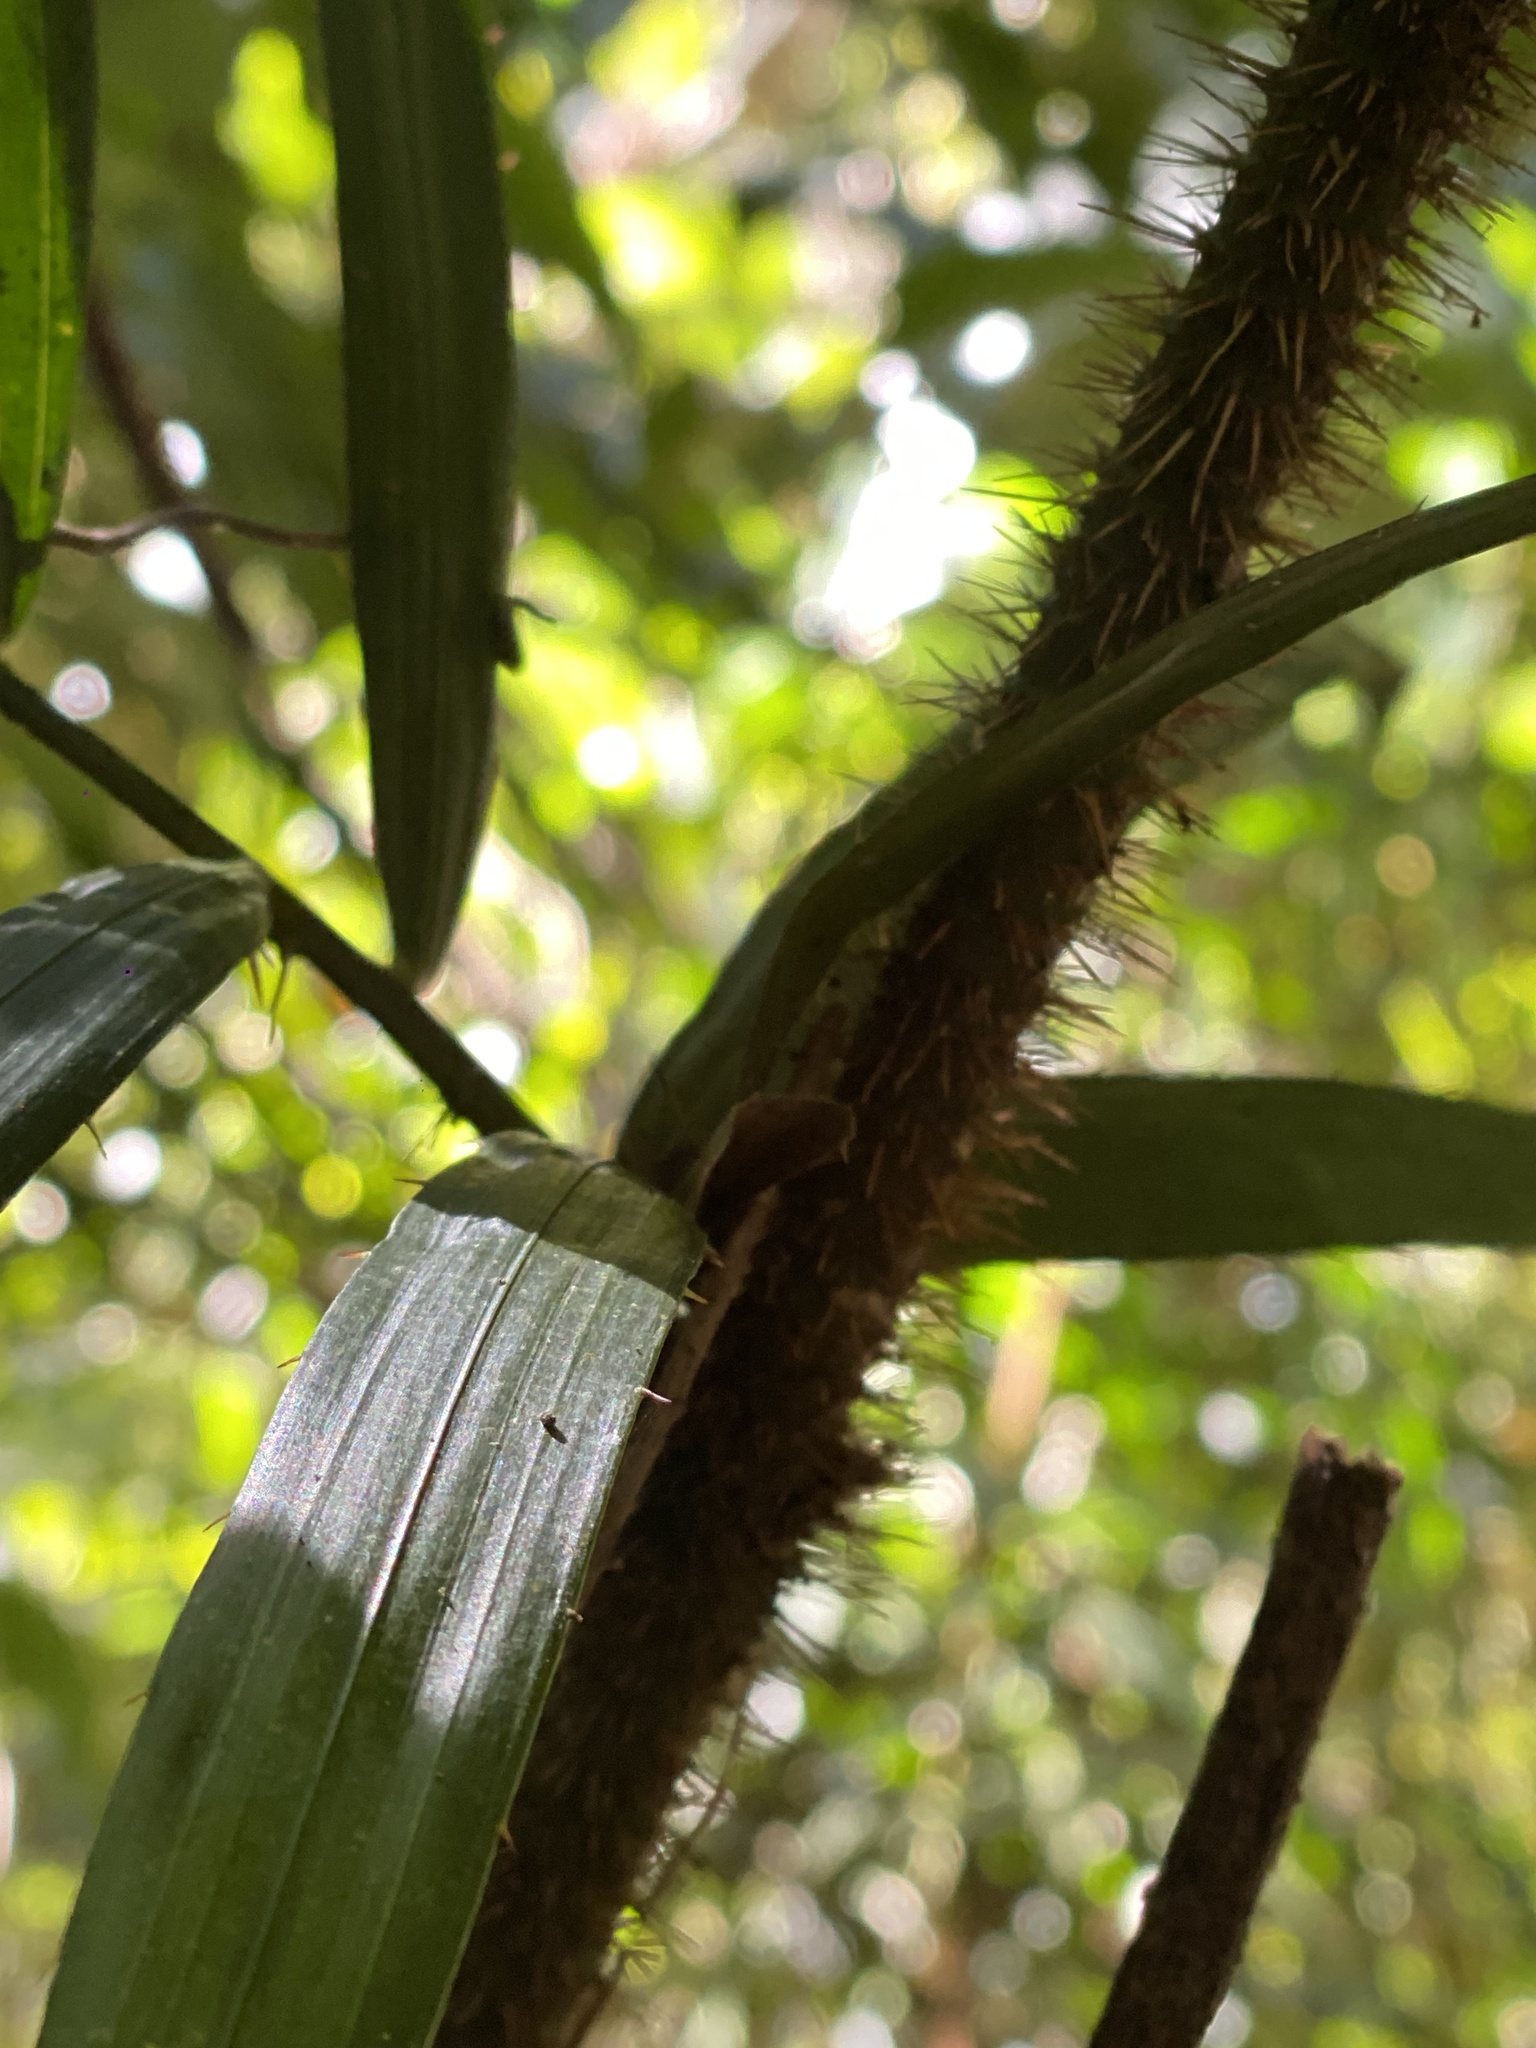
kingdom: Plantae
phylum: Tracheophyta
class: Liliopsida
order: Arecales
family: Arecaceae
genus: Calamus
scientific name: Calamus muelleri
